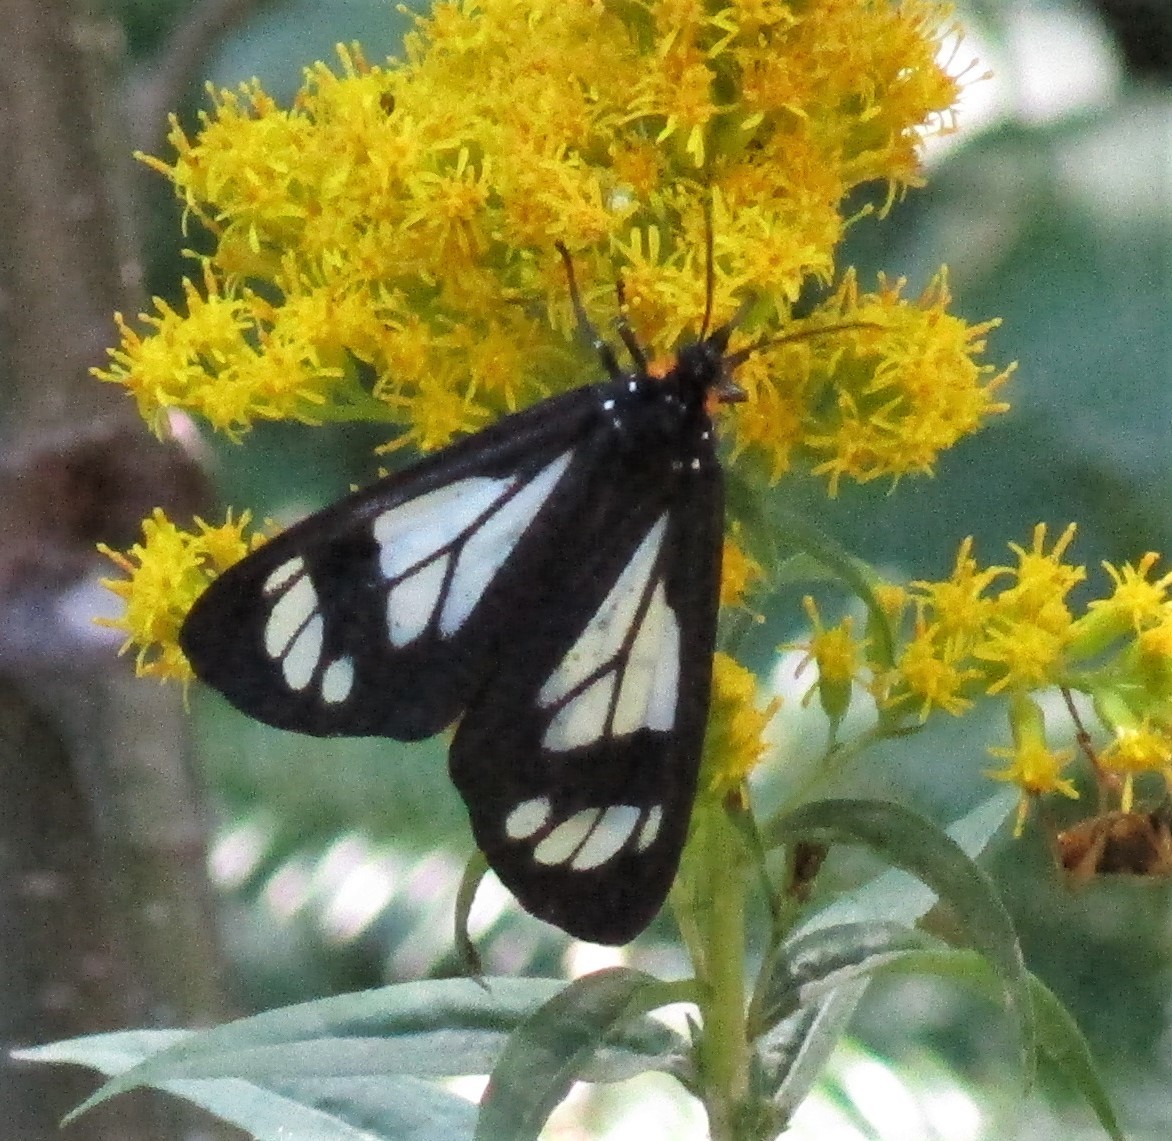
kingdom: Animalia
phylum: Arthropoda
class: Insecta
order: Lepidoptera
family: Erebidae
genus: Gnophaela
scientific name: Gnophaela vermiculata
